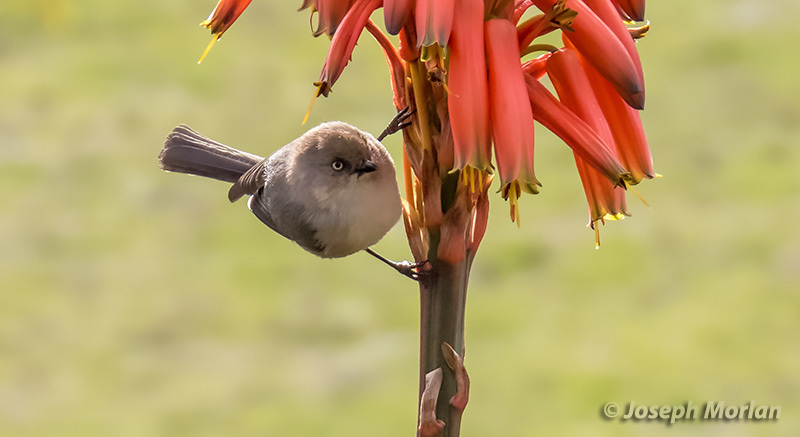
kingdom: Animalia
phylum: Chordata
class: Aves
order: Passeriformes
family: Aegithalidae
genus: Psaltriparus
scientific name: Psaltriparus minimus
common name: American bushtit
